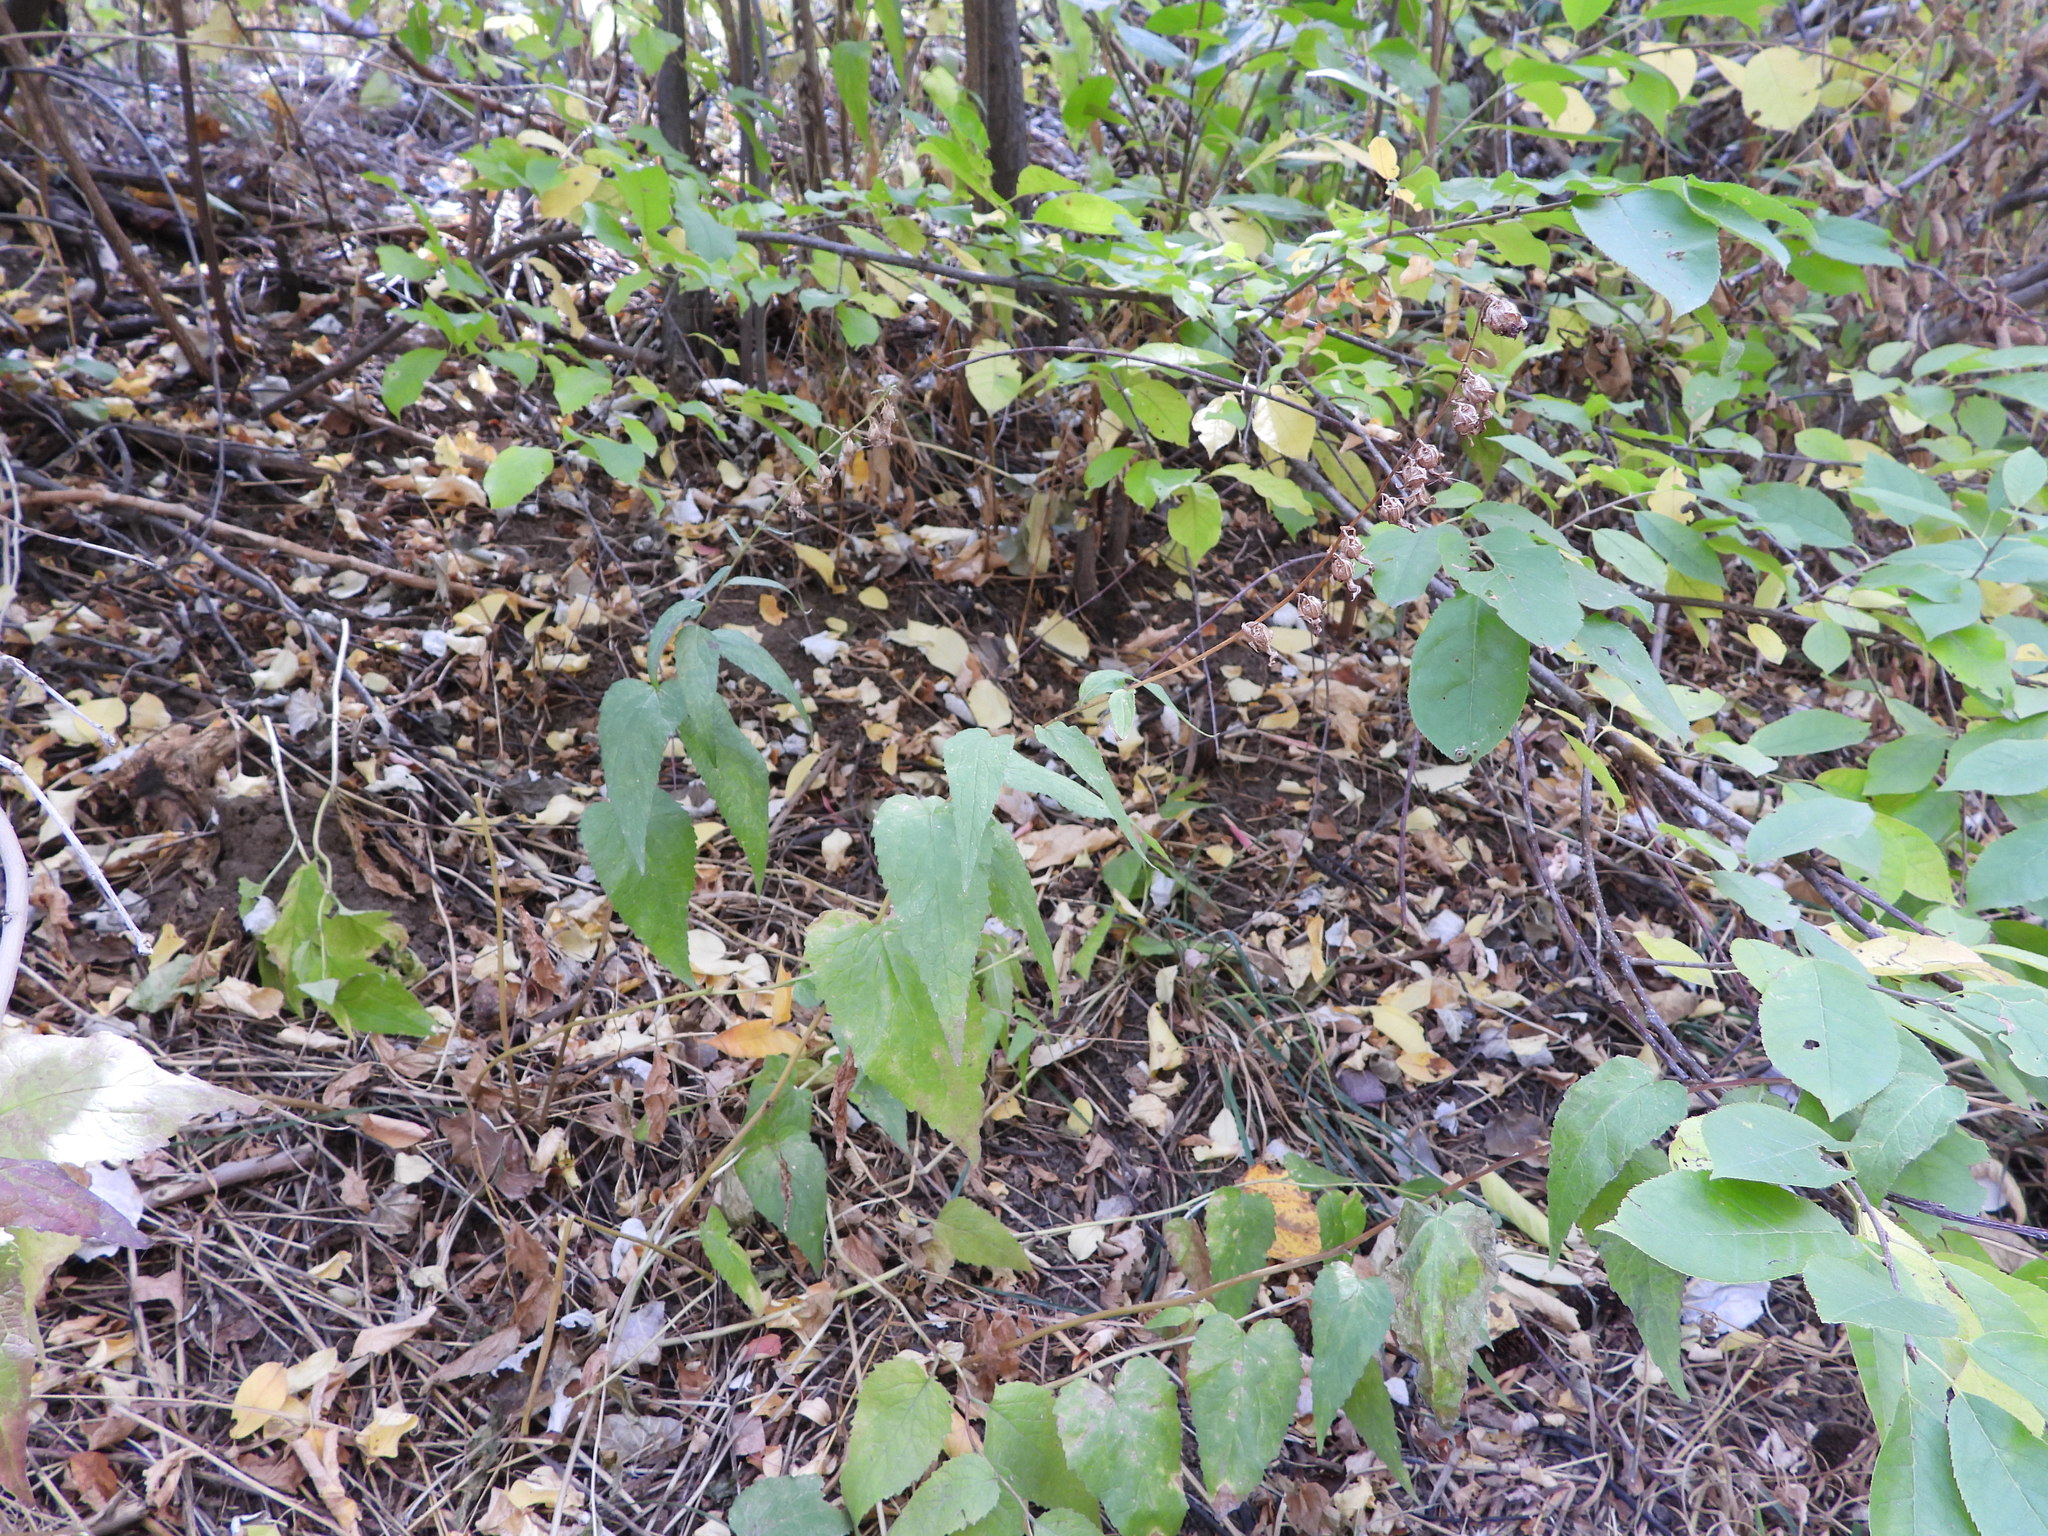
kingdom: Plantae
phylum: Tracheophyta
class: Magnoliopsida
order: Asterales
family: Campanulaceae
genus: Campanula
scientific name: Campanula rapunculoides
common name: Creeping bellflower
